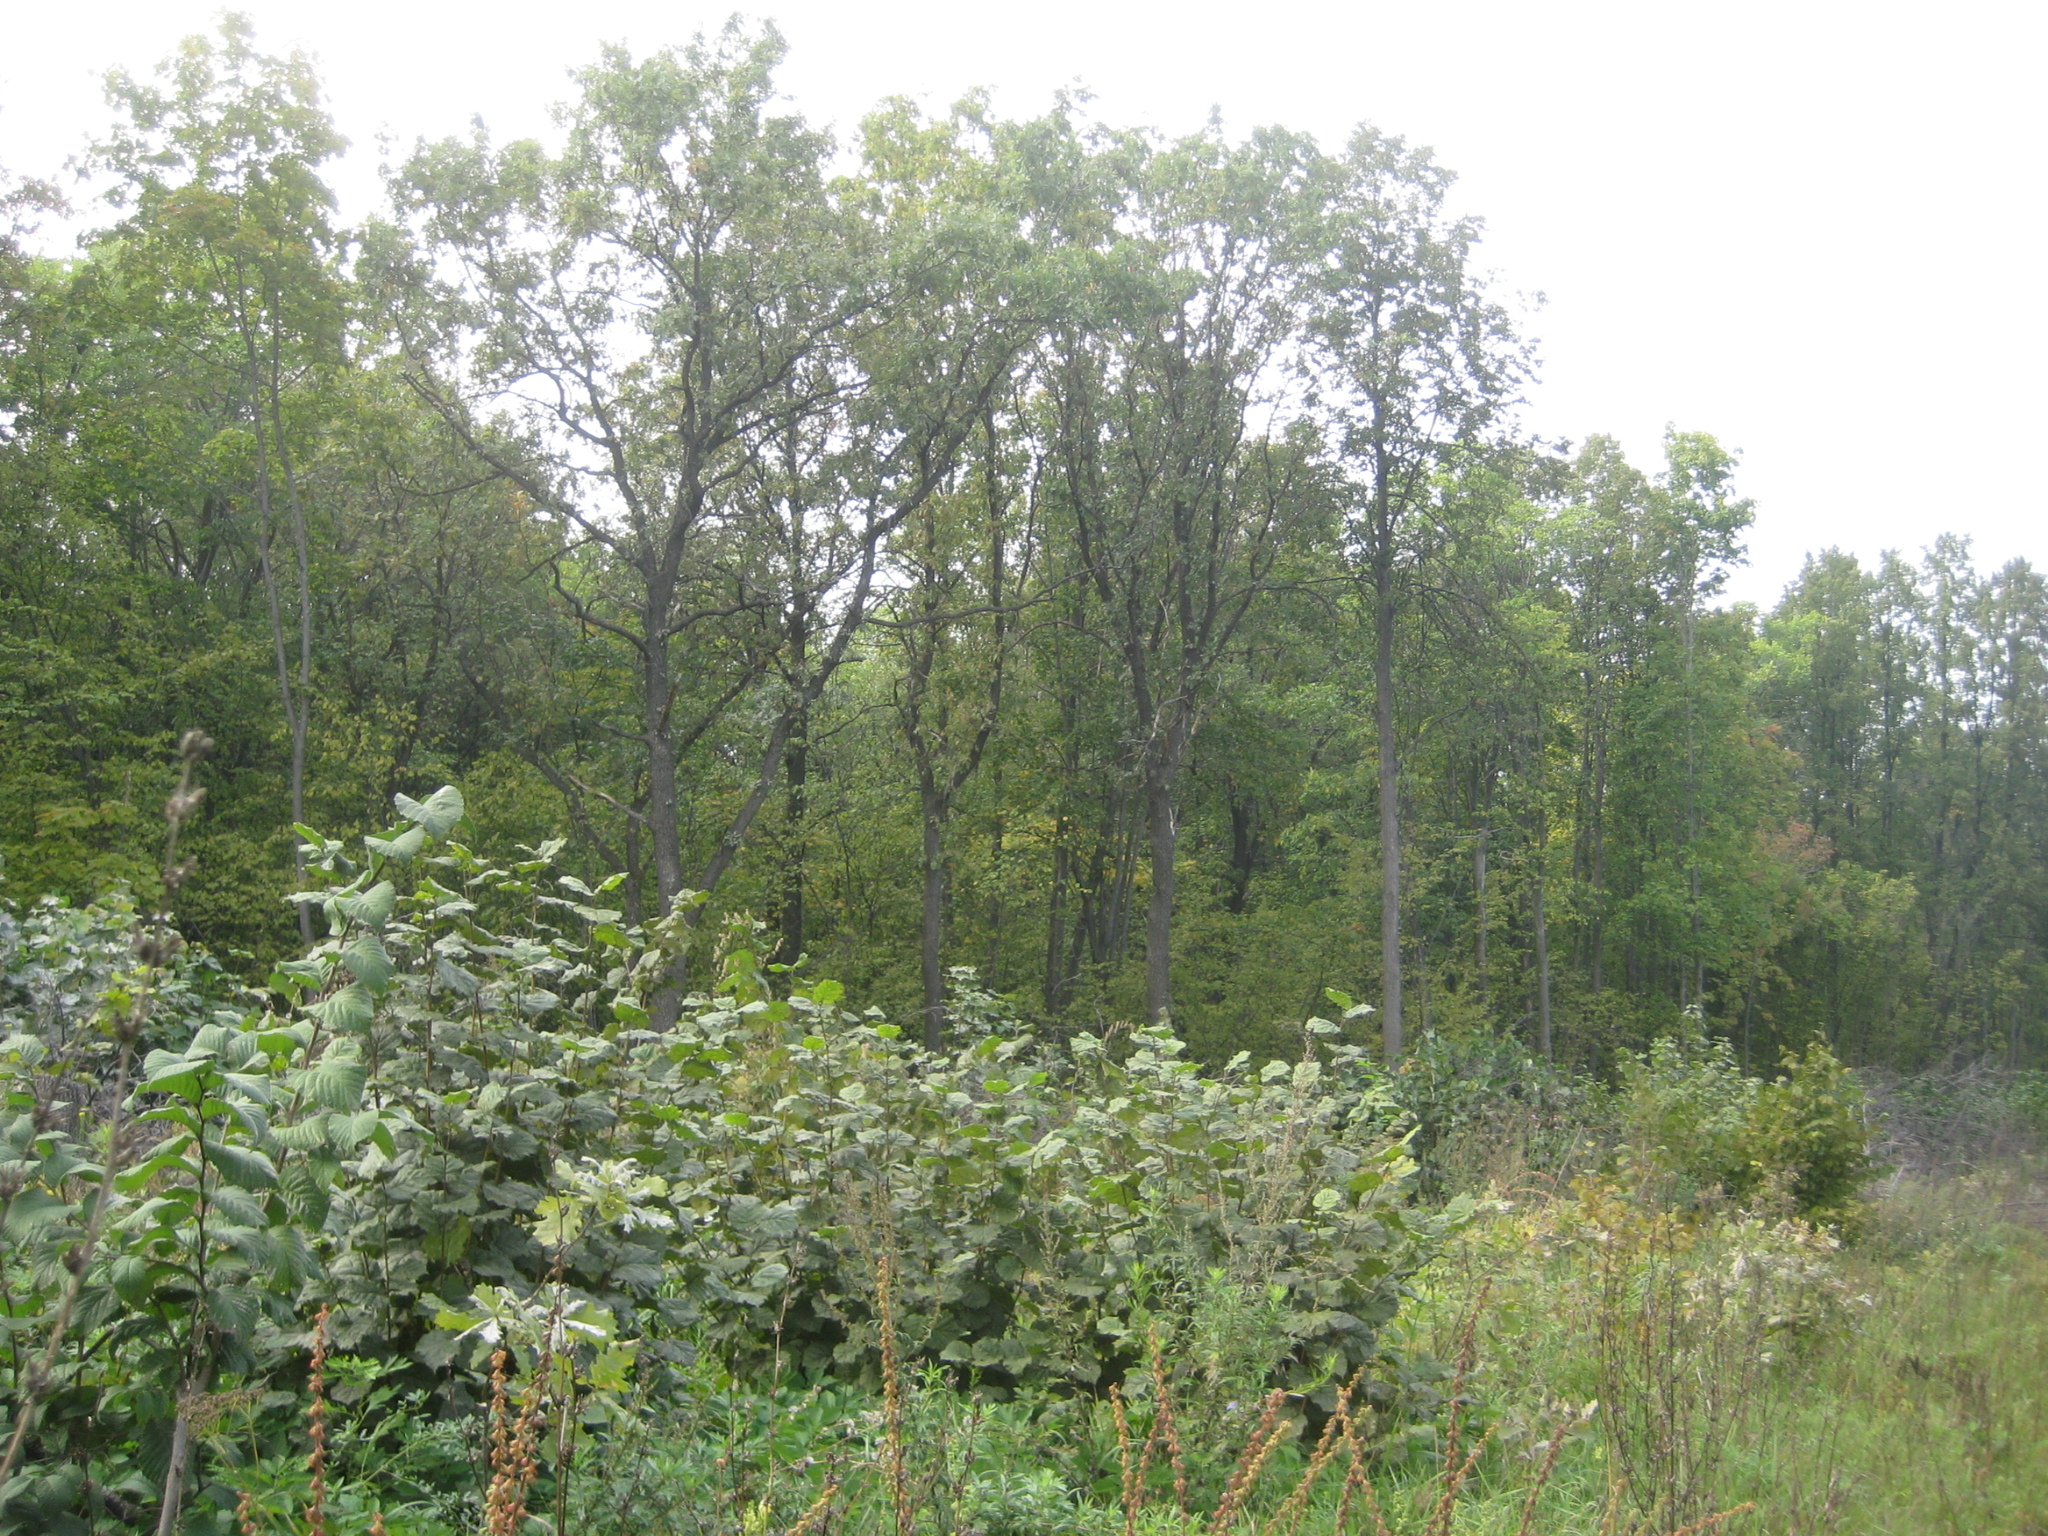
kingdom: Plantae
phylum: Tracheophyta
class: Magnoliopsida
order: Fagales
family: Fagaceae
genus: Quercus
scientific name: Quercus robur
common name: Pedunculate oak
